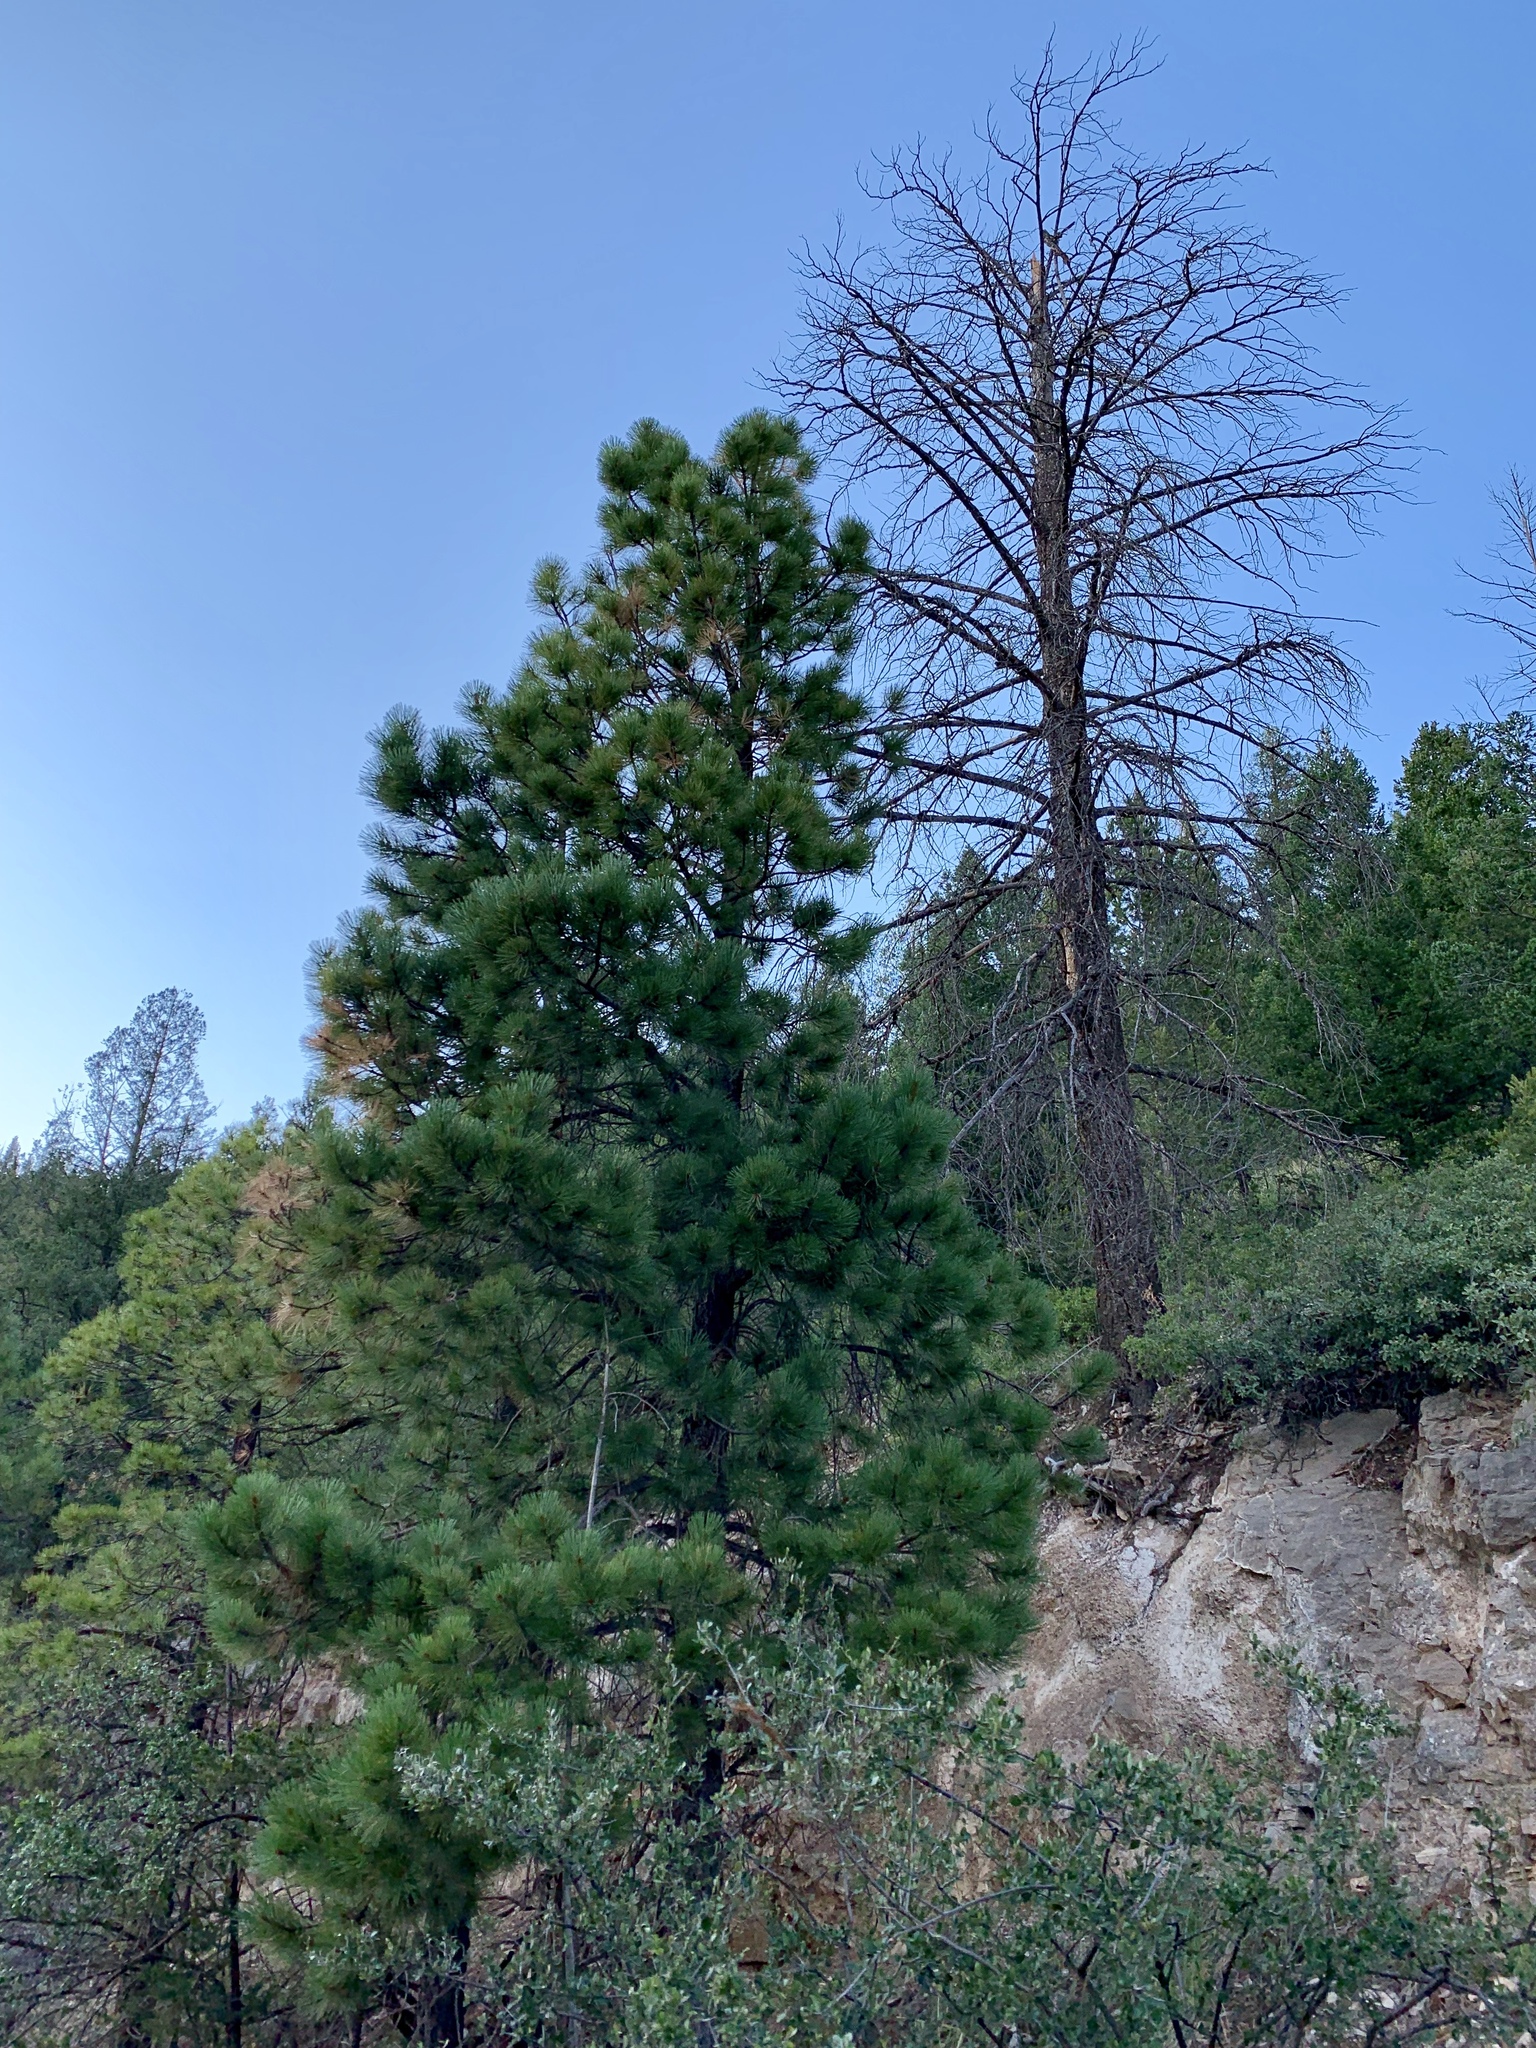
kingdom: Plantae
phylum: Tracheophyta
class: Pinopsida
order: Pinales
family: Pinaceae
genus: Pinus
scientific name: Pinus ponderosa
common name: Western yellow-pine
